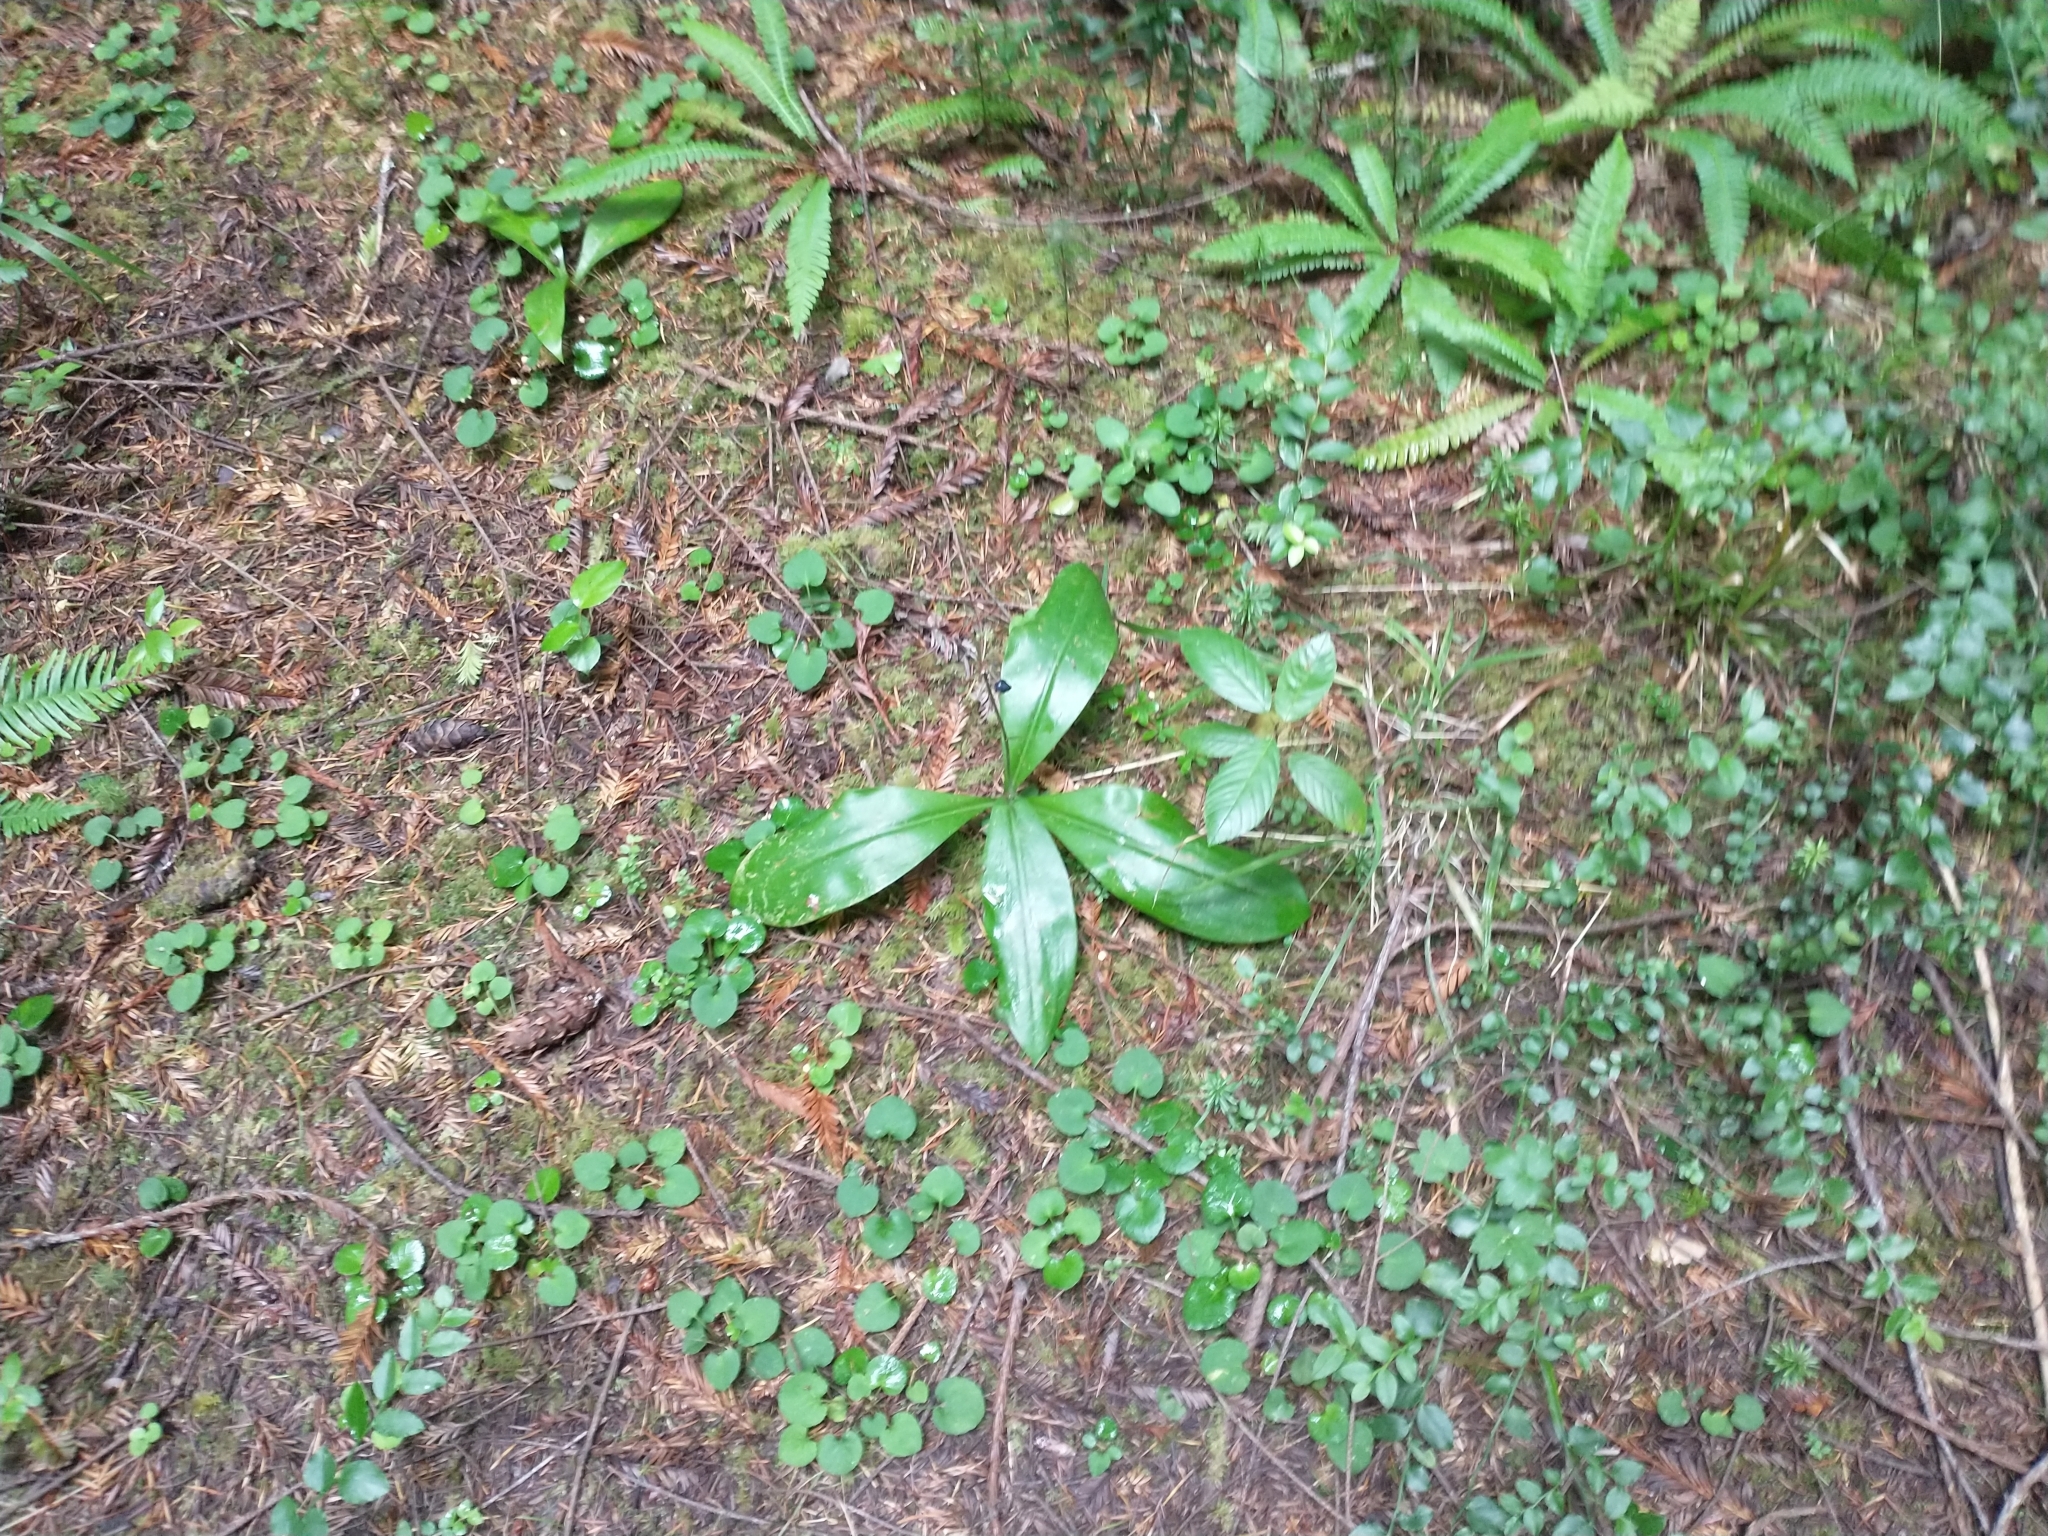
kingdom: Plantae
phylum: Tracheophyta
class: Liliopsida
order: Liliales
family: Liliaceae
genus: Clintonia
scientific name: Clintonia andrewsiana
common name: Red clintonia
